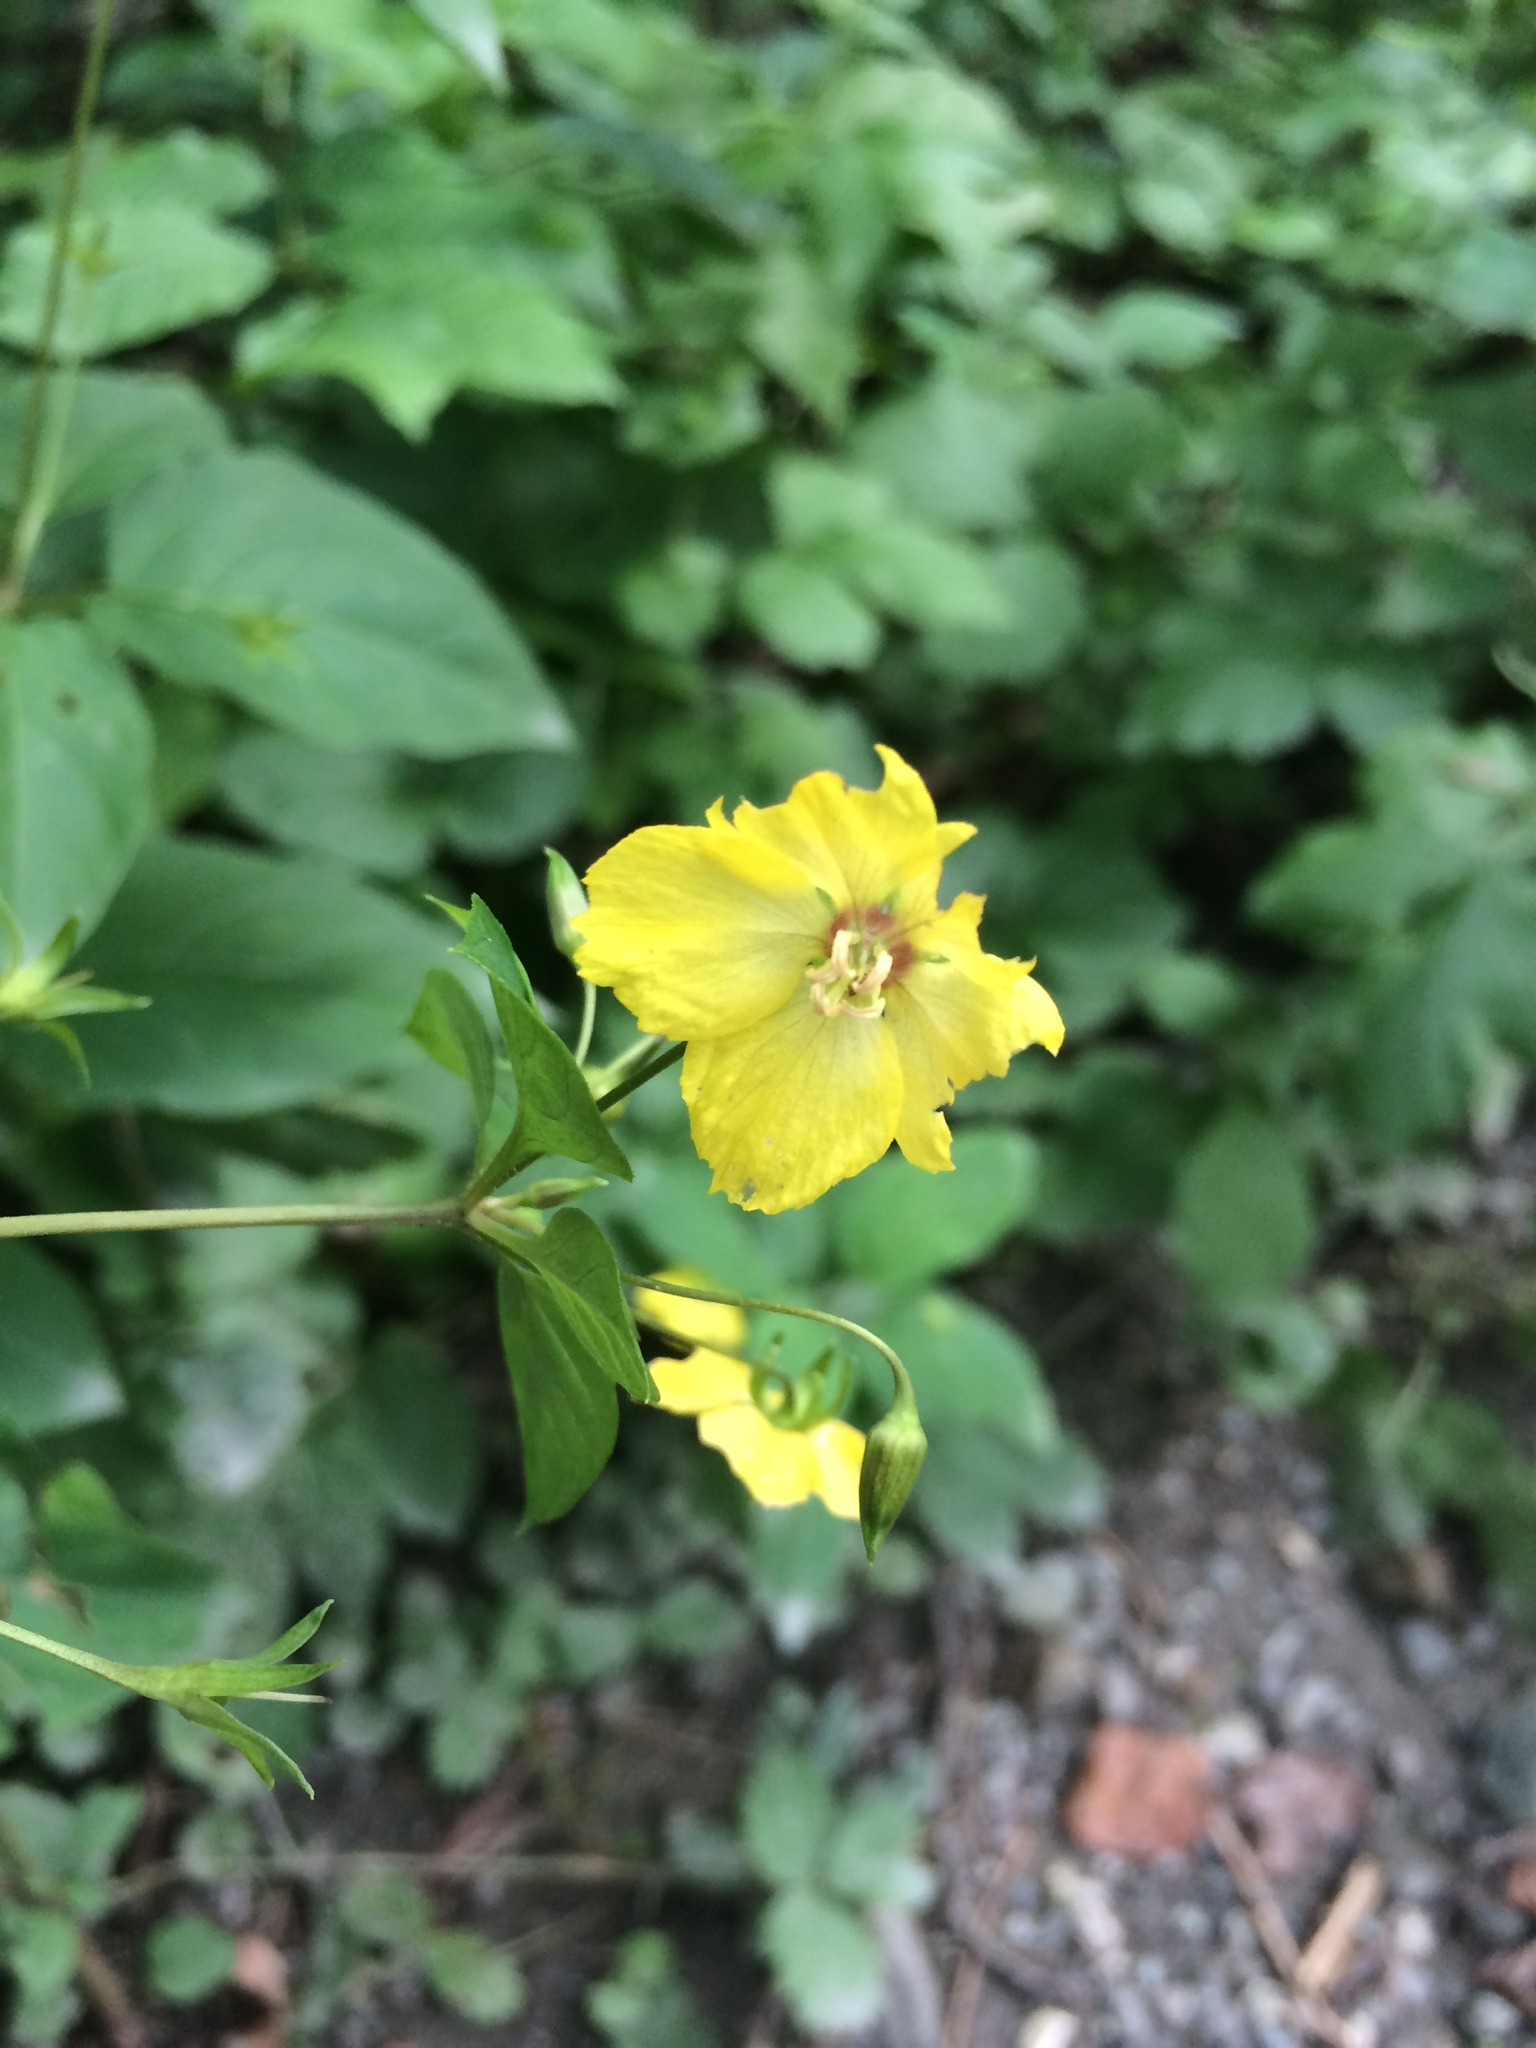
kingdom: Plantae
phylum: Tracheophyta
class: Magnoliopsida
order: Ericales
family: Primulaceae
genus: Lysimachia
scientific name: Lysimachia ciliata
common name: Fringed loosestrife
